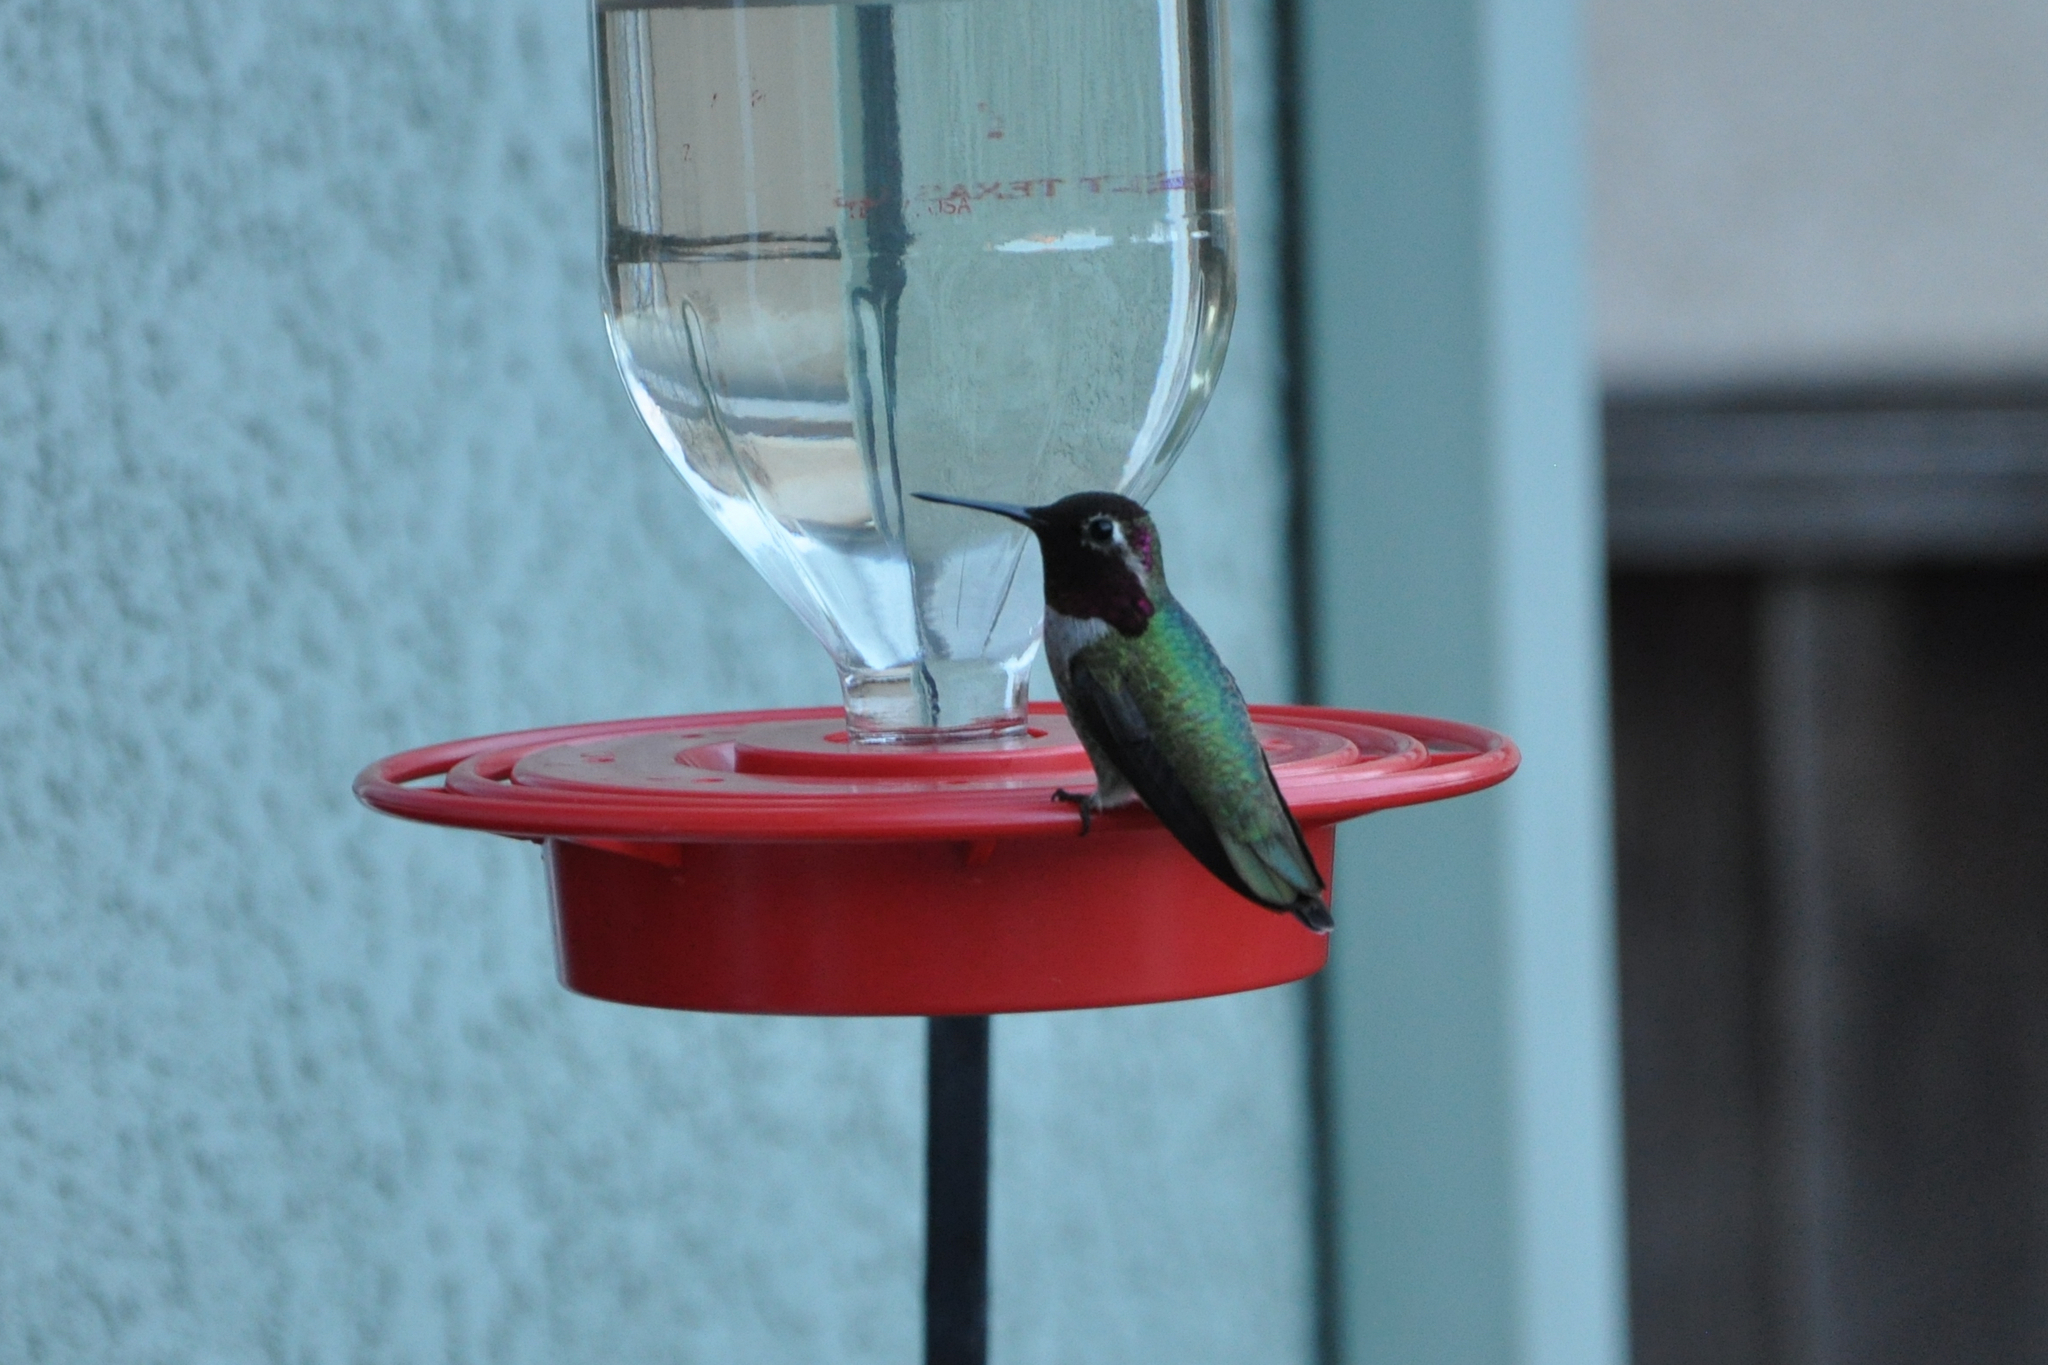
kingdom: Animalia
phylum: Chordata
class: Aves
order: Apodiformes
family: Trochilidae
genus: Calypte
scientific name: Calypte anna
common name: Anna's hummingbird
